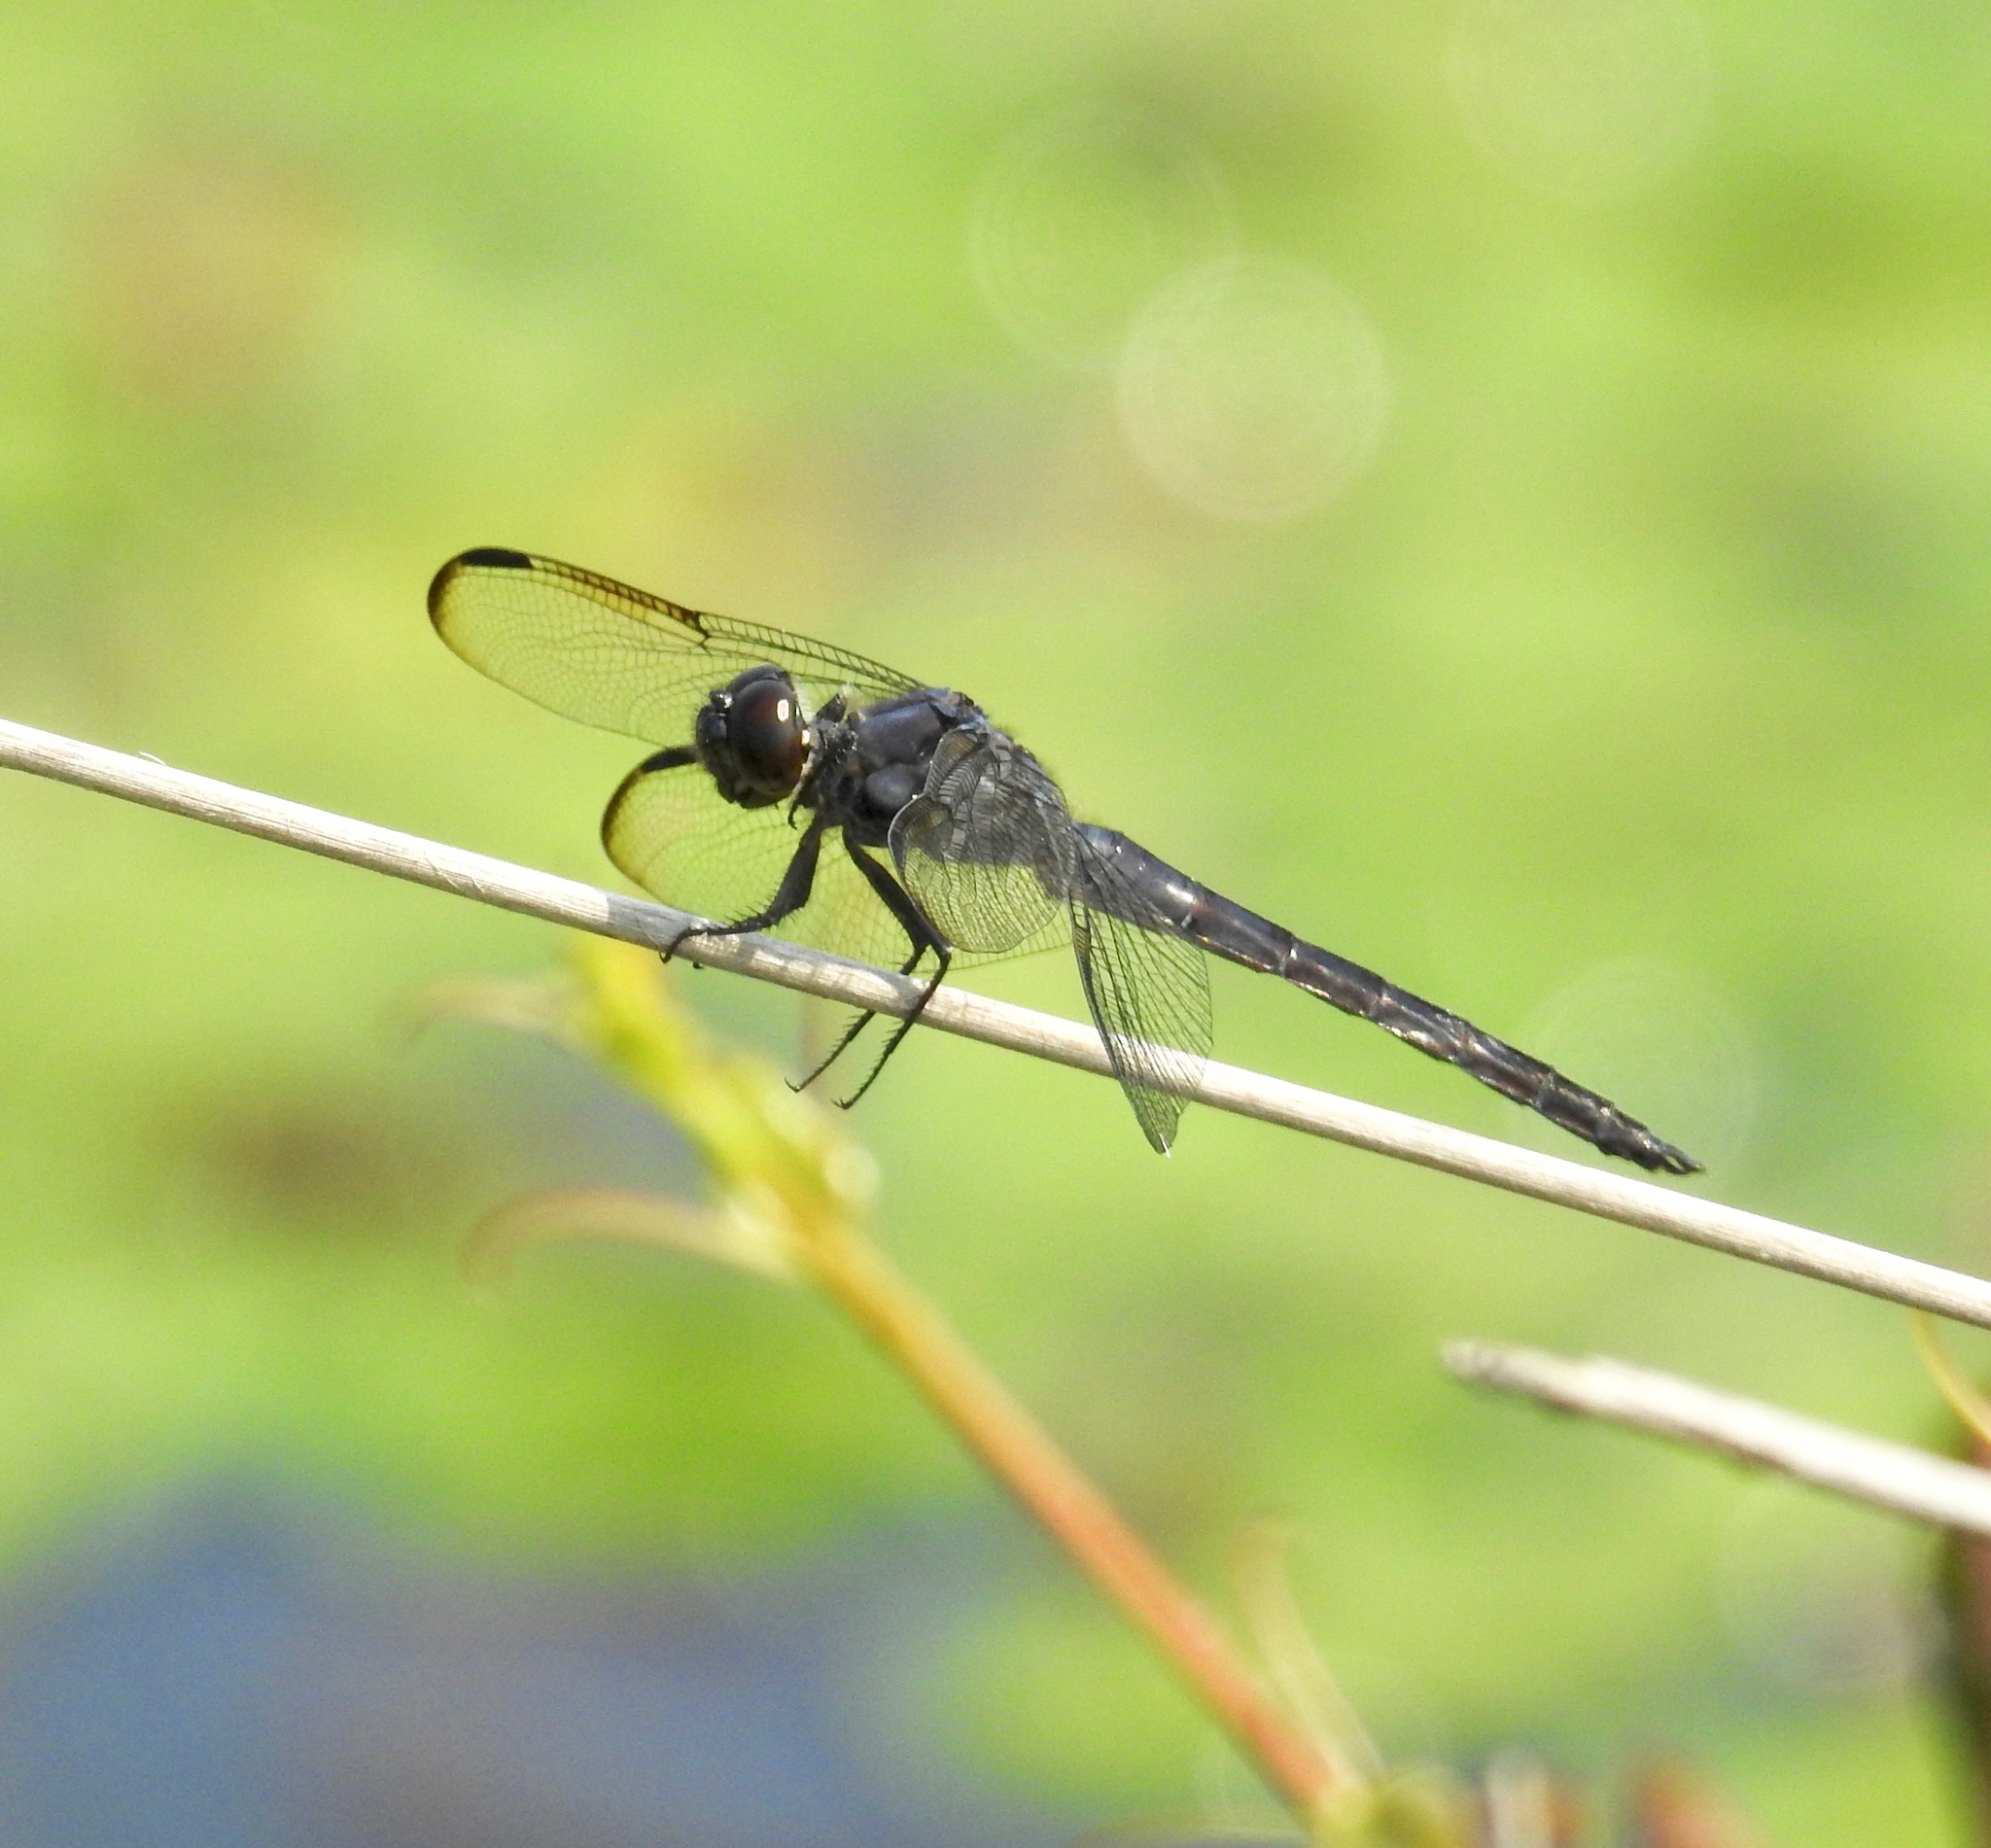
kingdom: Animalia
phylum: Arthropoda
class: Insecta
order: Odonata
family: Libellulidae
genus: Libellula
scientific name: Libellula incesta
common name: Slaty skimmer
